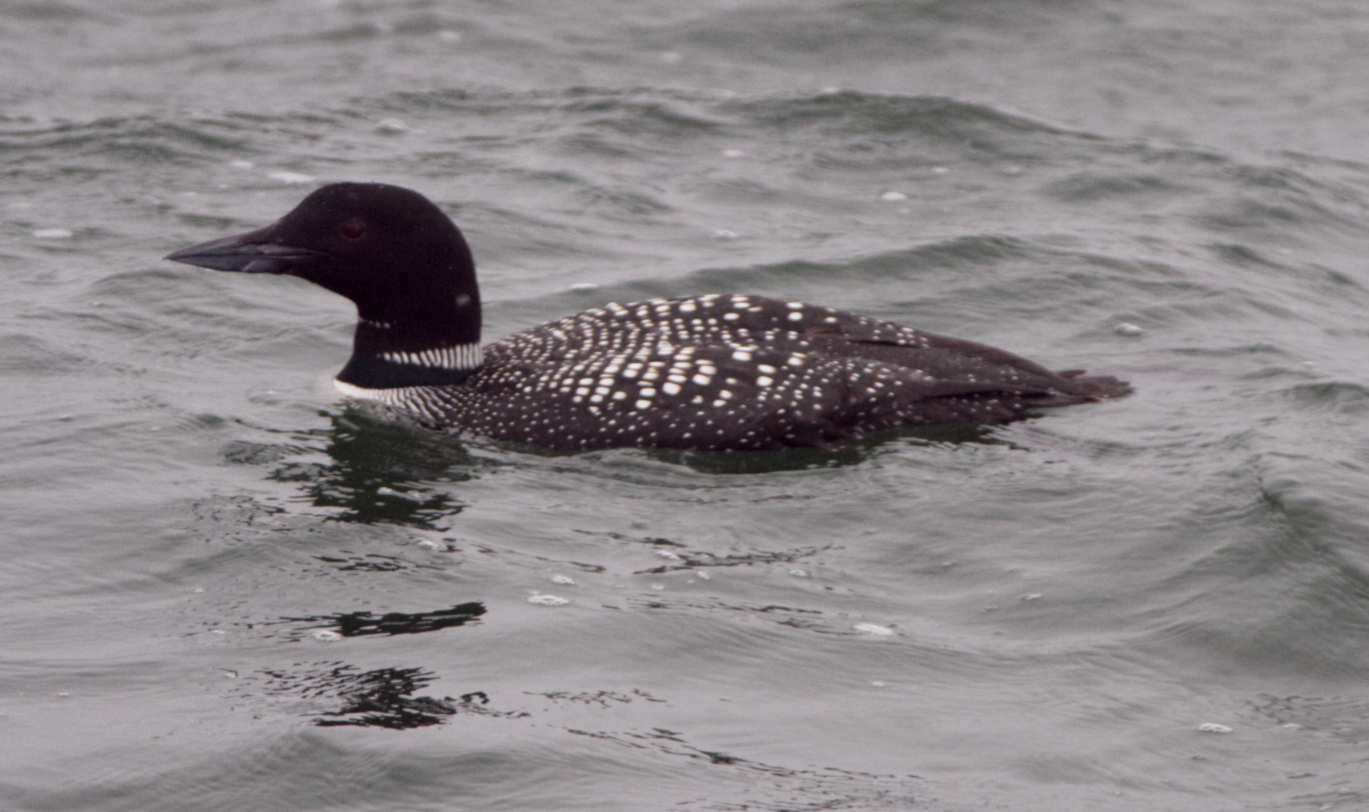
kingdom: Animalia
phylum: Chordata
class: Aves
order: Gaviiformes
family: Gaviidae
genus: Gavia
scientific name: Gavia immer
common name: Common loon
